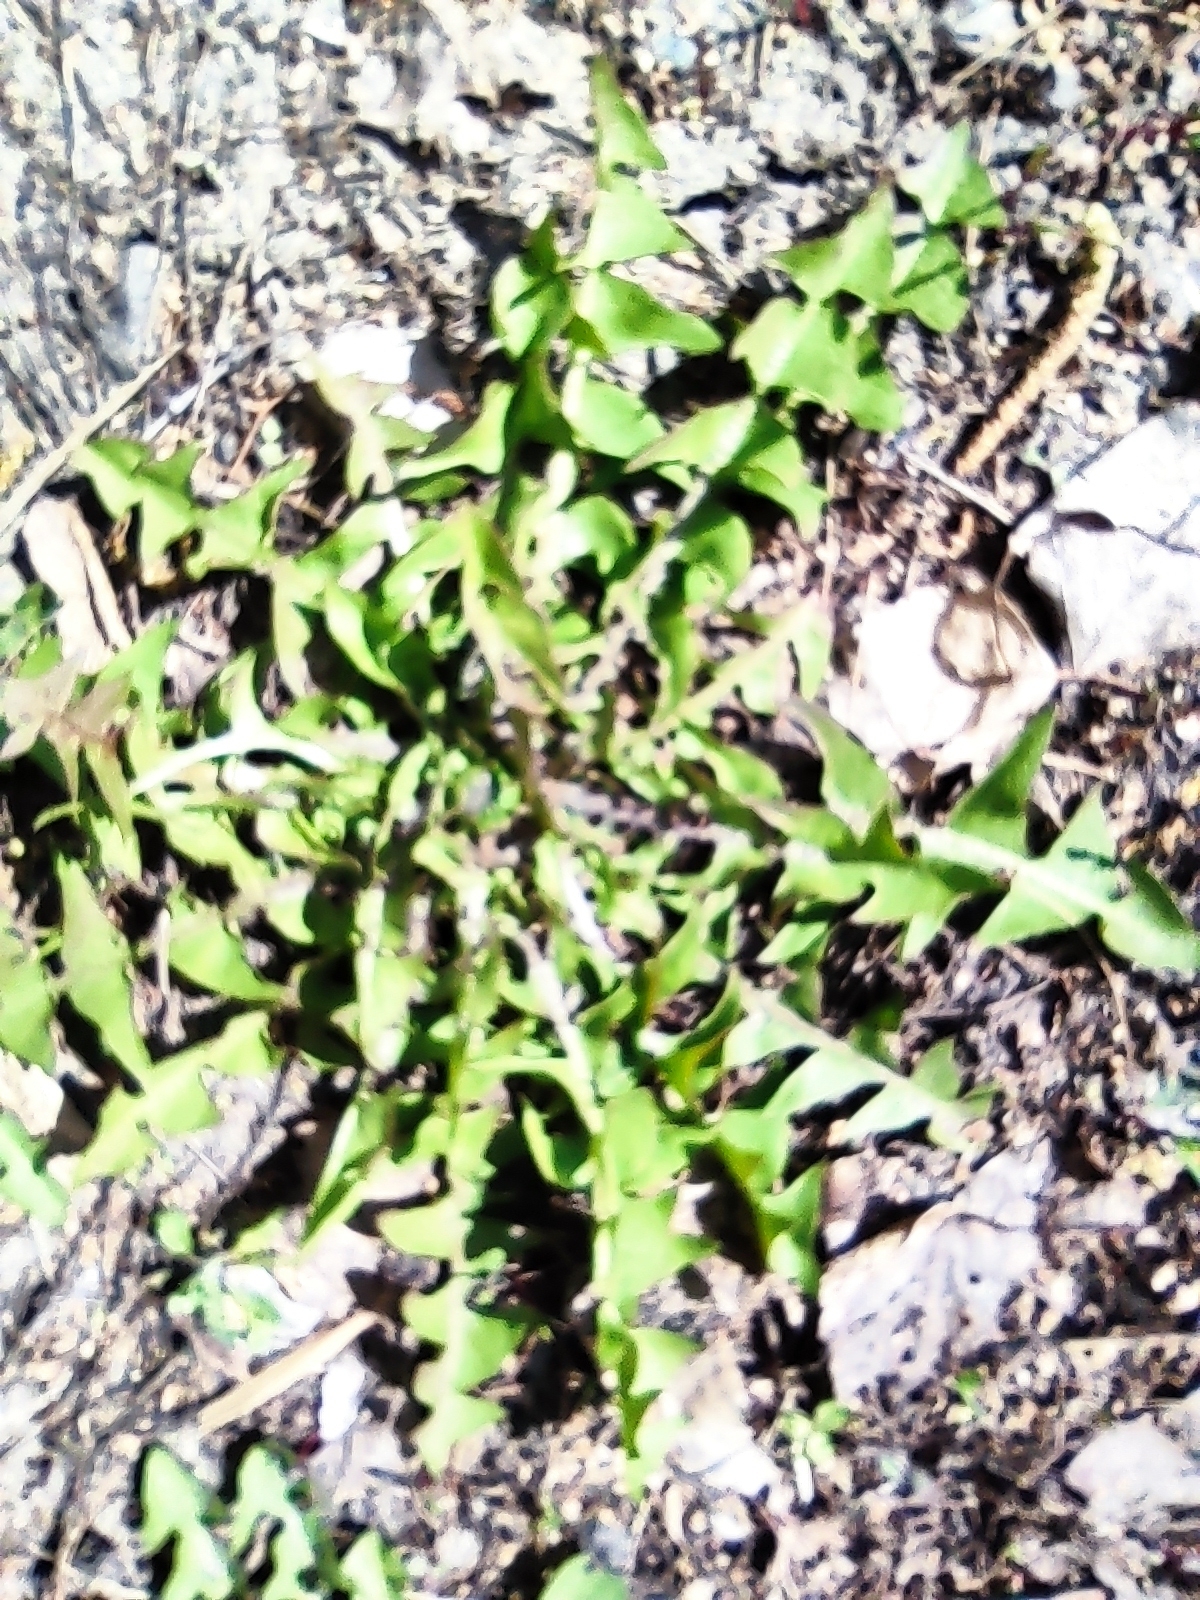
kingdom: Plantae
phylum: Tracheophyta
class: Magnoliopsida
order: Asterales
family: Asteraceae
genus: Taraxacum
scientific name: Taraxacum officinale
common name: Common dandelion
